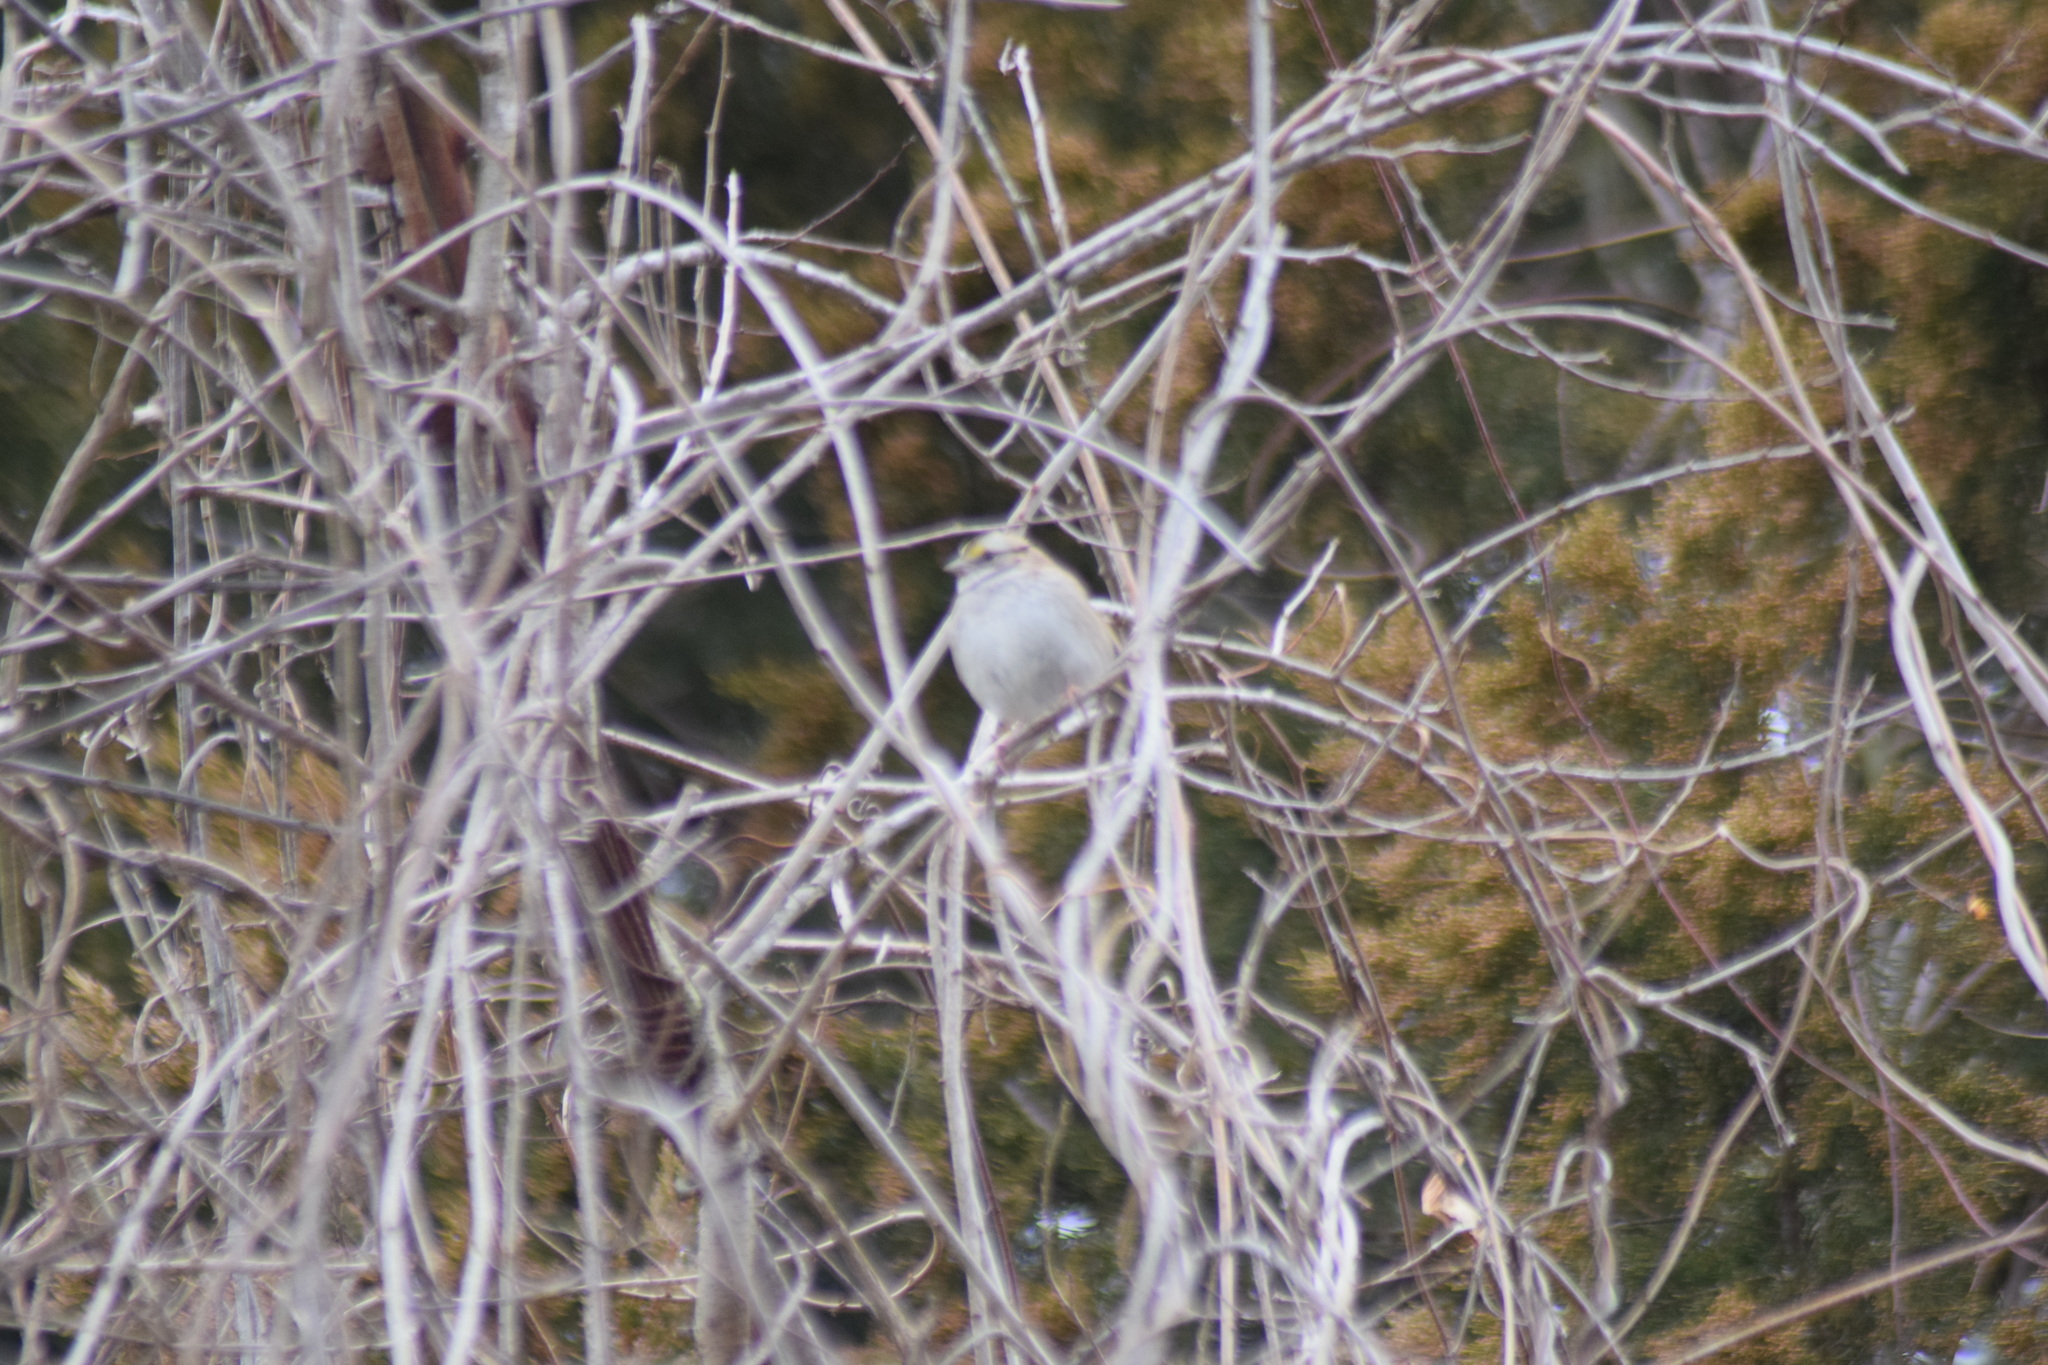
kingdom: Animalia
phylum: Chordata
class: Aves
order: Passeriformes
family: Passerellidae
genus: Zonotrichia
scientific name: Zonotrichia albicollis
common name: White-throated sparrow
